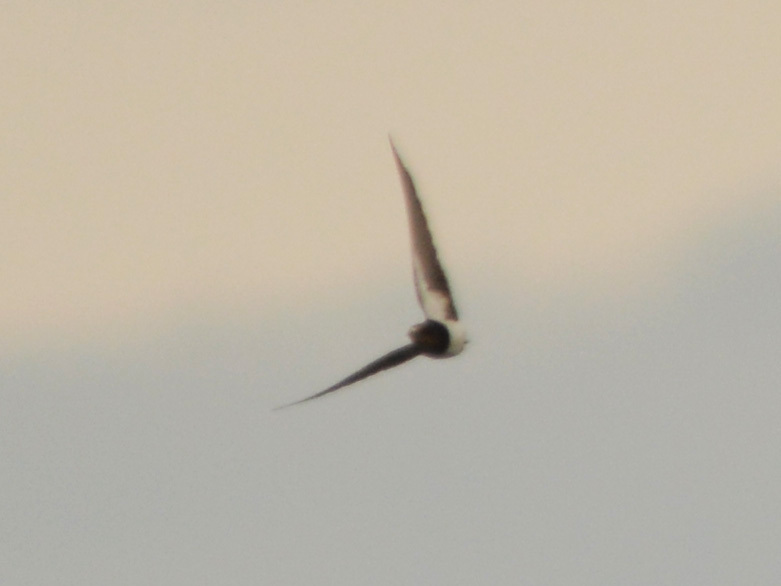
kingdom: Animalia
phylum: Chordata
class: Aves
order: Passeriformes
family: Hirundinidae
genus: Hirundo
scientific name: Hirundo rustica
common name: Barn swallow
